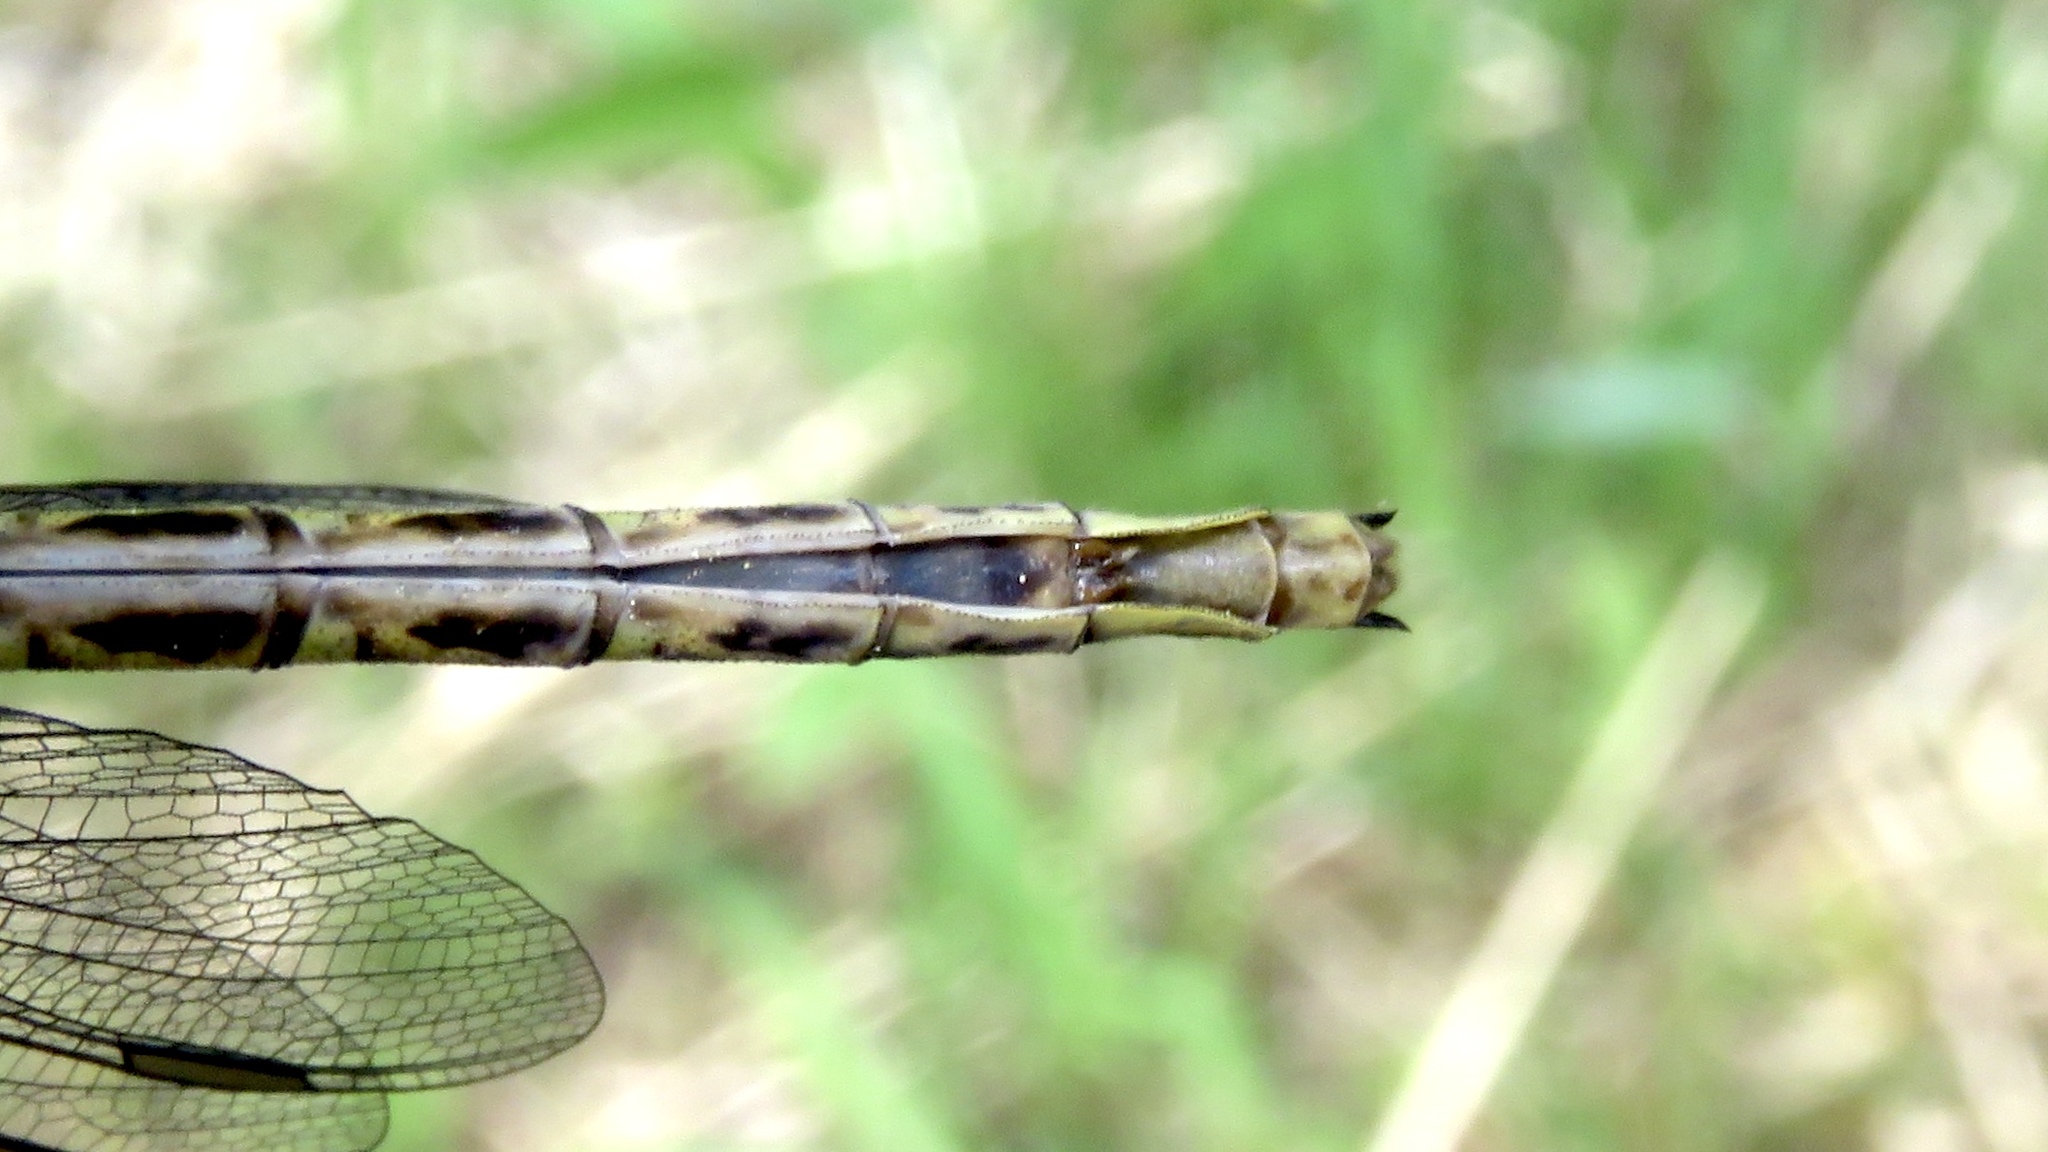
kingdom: Animalia
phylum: Arthropoda
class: Insecta
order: Odonata
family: Gomphidae
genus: Phanogomphus
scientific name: Phanogomphus spicatus
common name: Dusky clubtail
